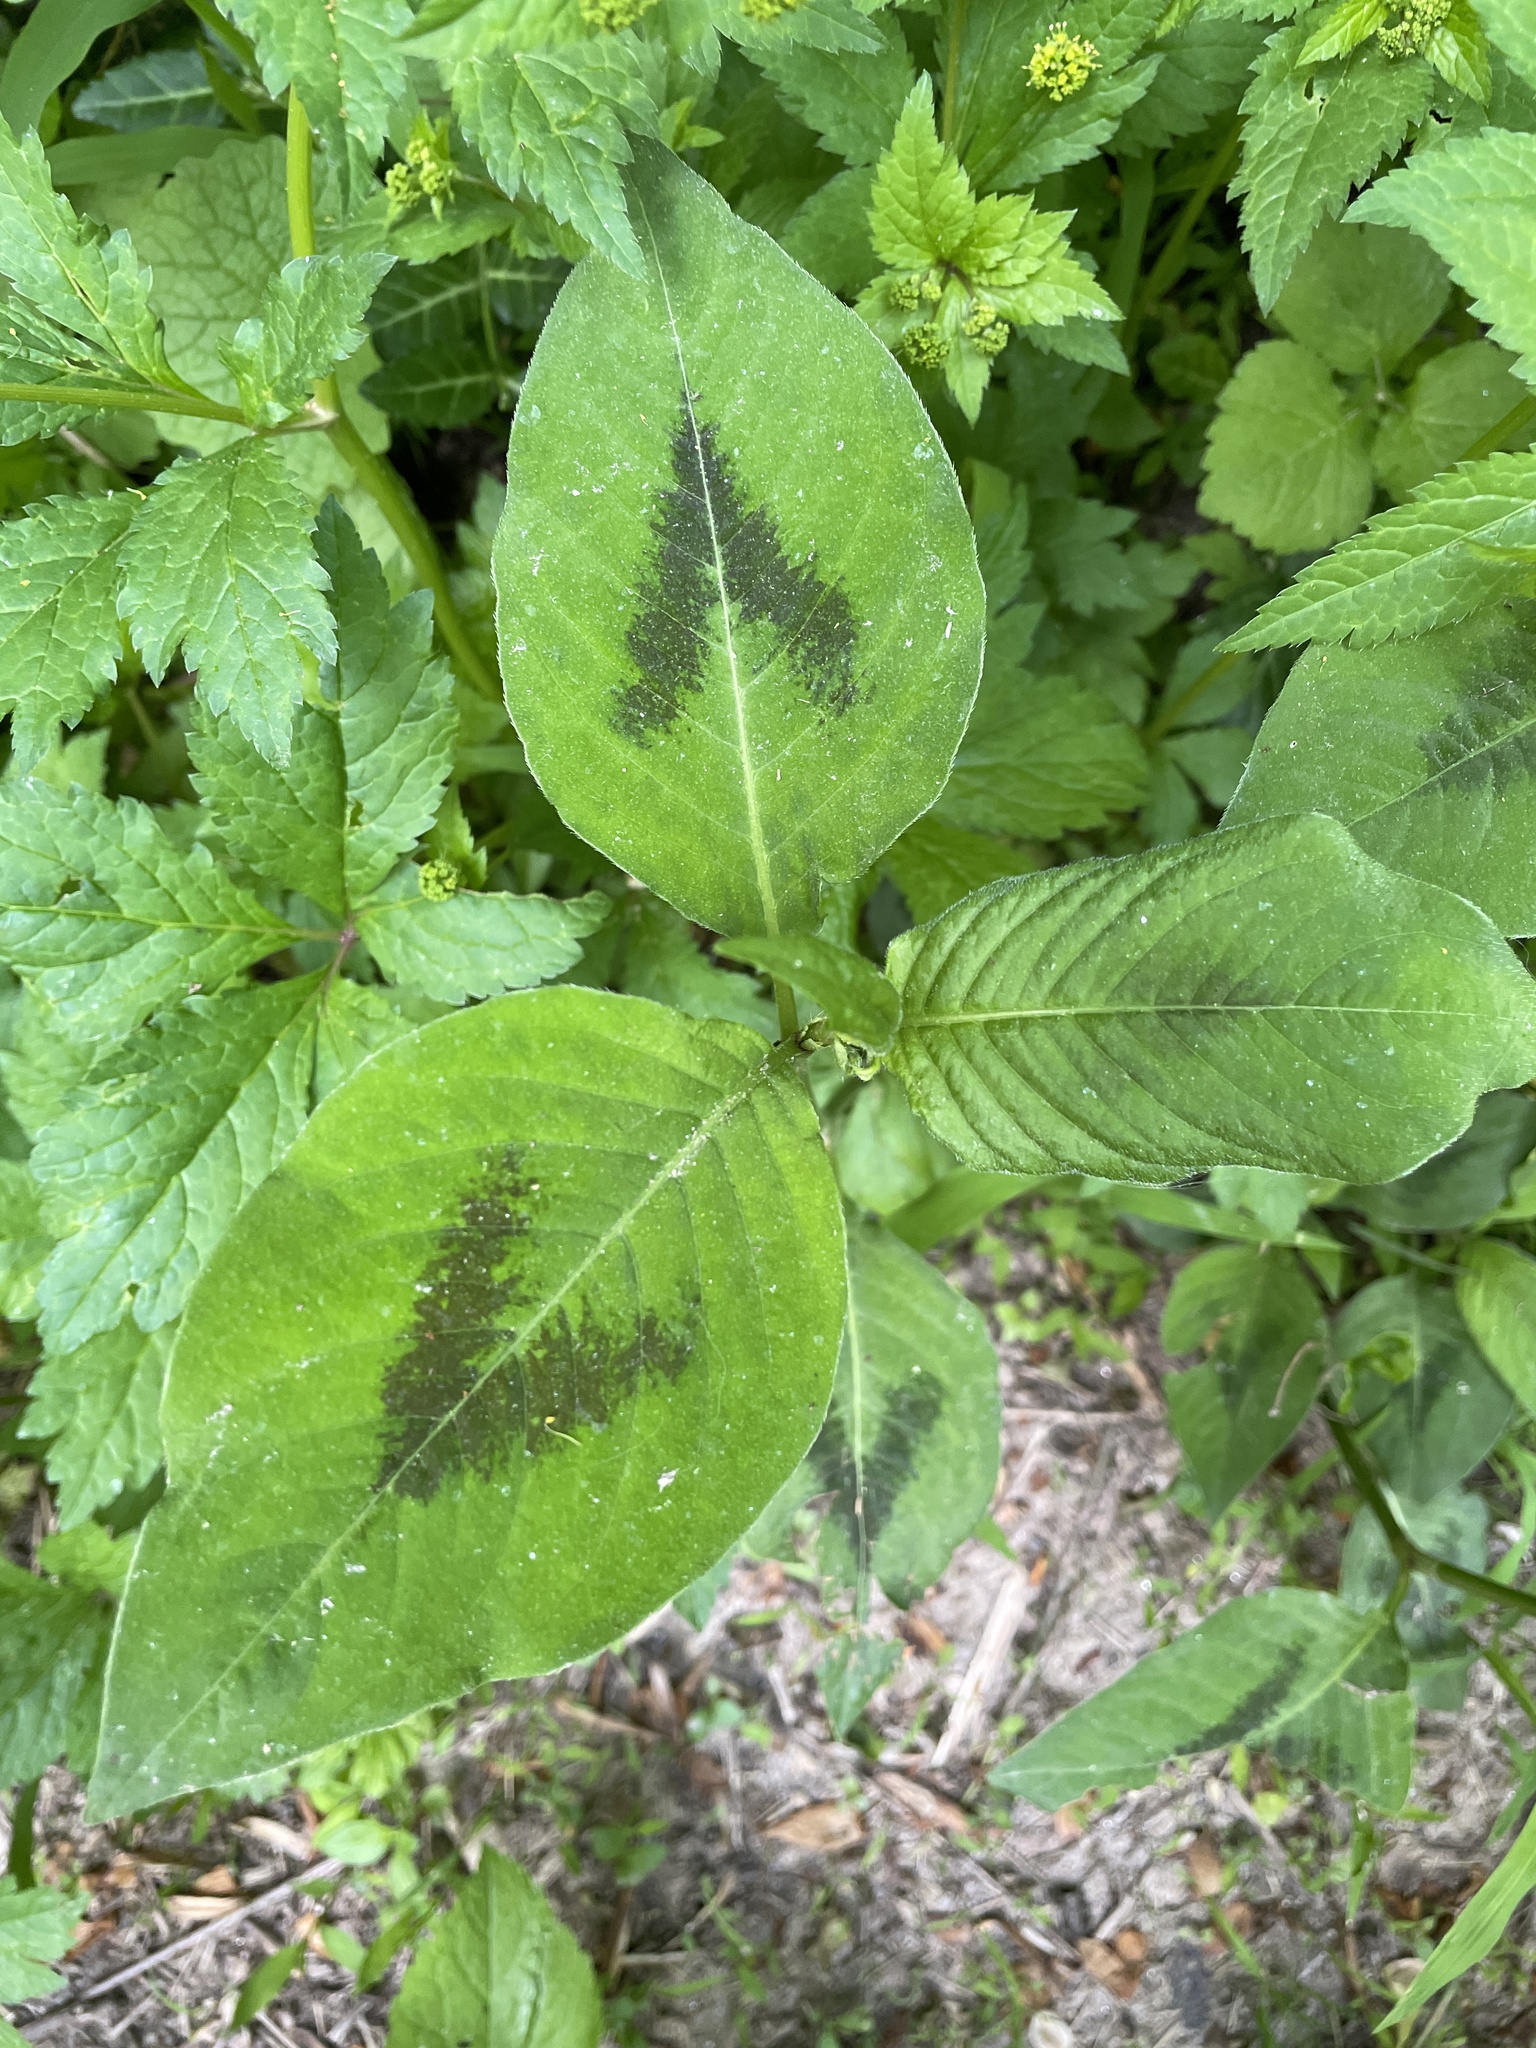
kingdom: Plantae
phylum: Tracheophyta
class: Magnoliopsida
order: Caryophyllales
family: Polygonaceae
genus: Persicaria
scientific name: Persicaria virginiana
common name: Jumpseed
